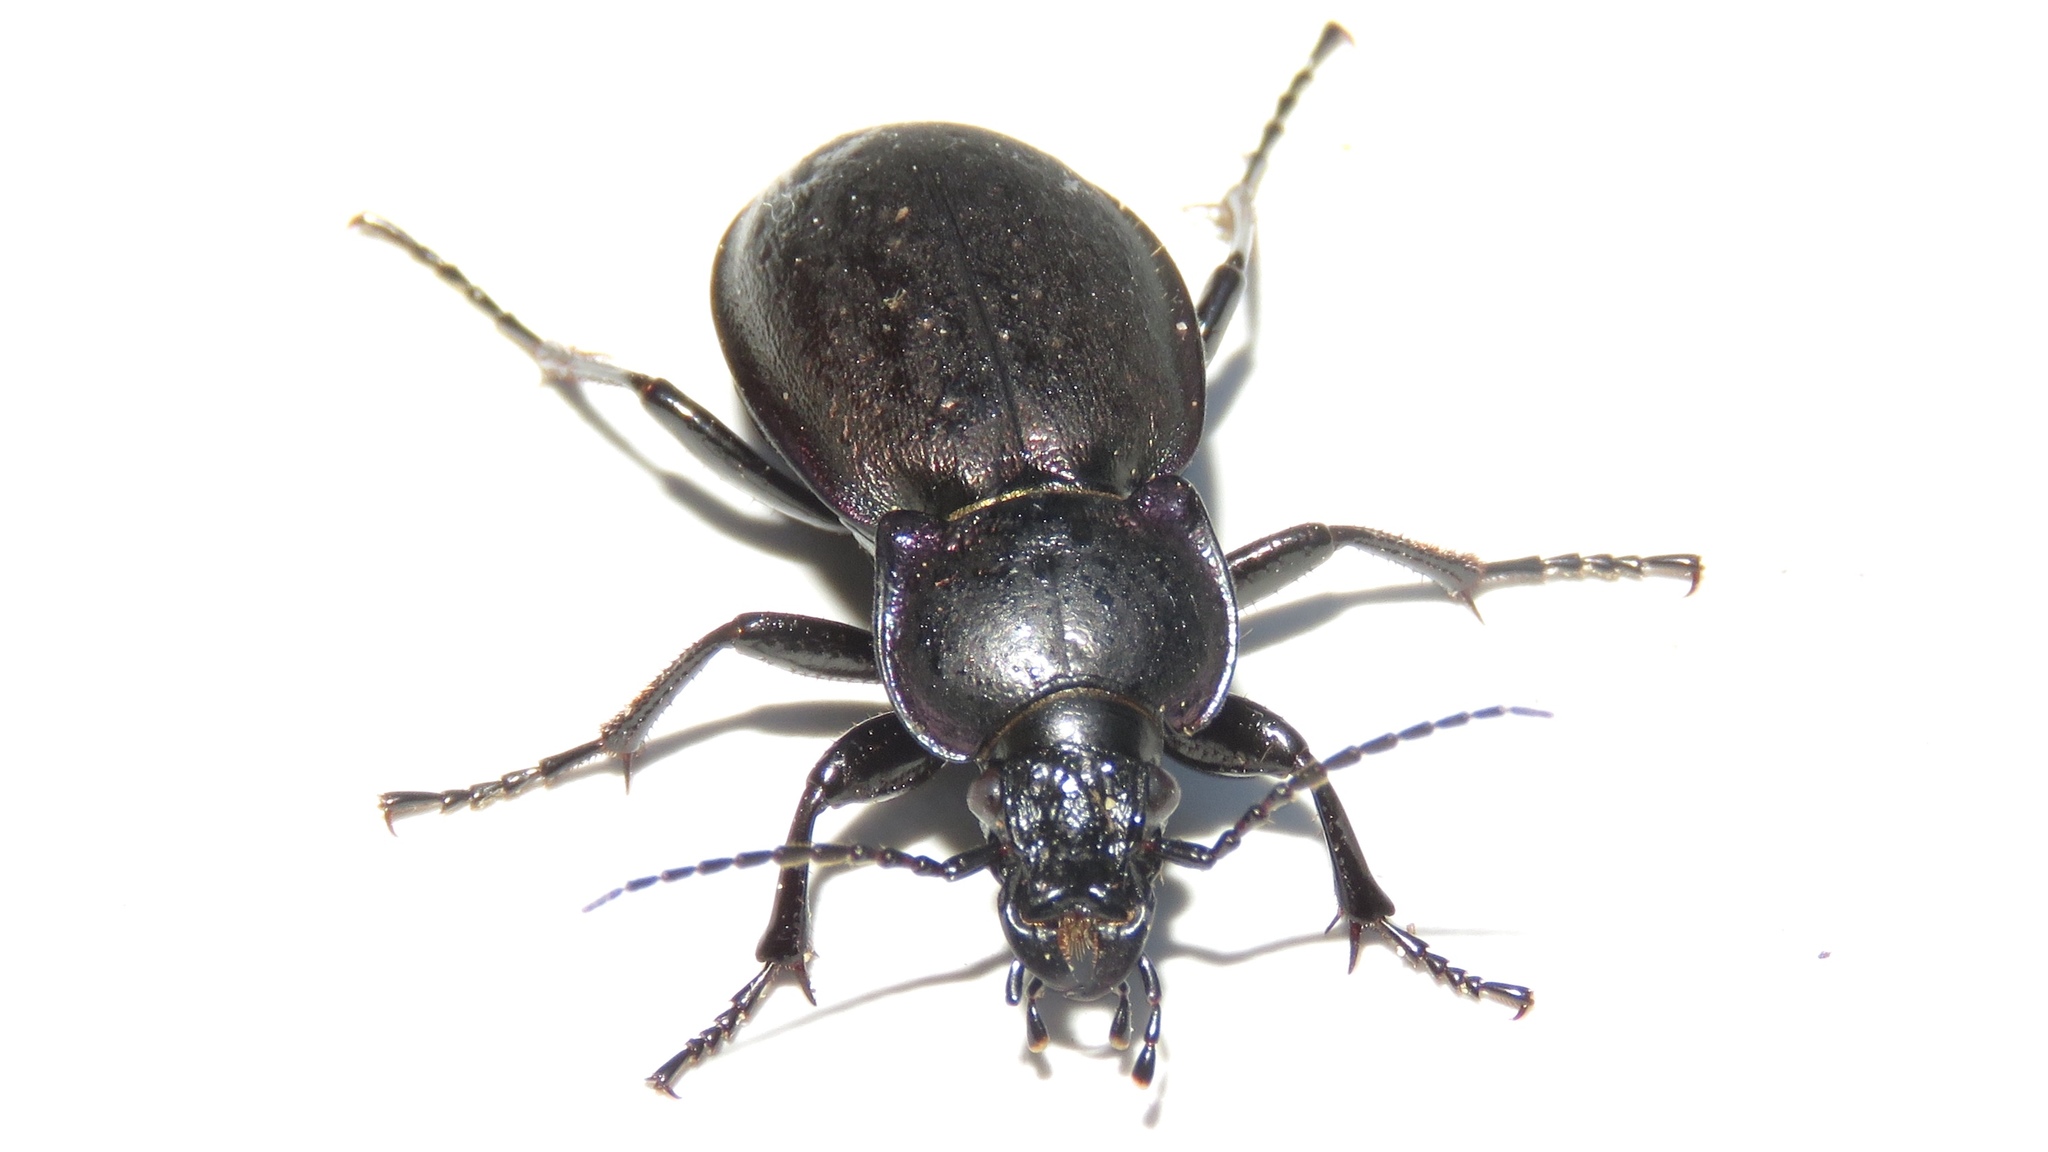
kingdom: Animalia
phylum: Arthropoda
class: Insecta
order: Coleoptera
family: Carabidae
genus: Carabus
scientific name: Carabus nemoralis
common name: European ground beetle
